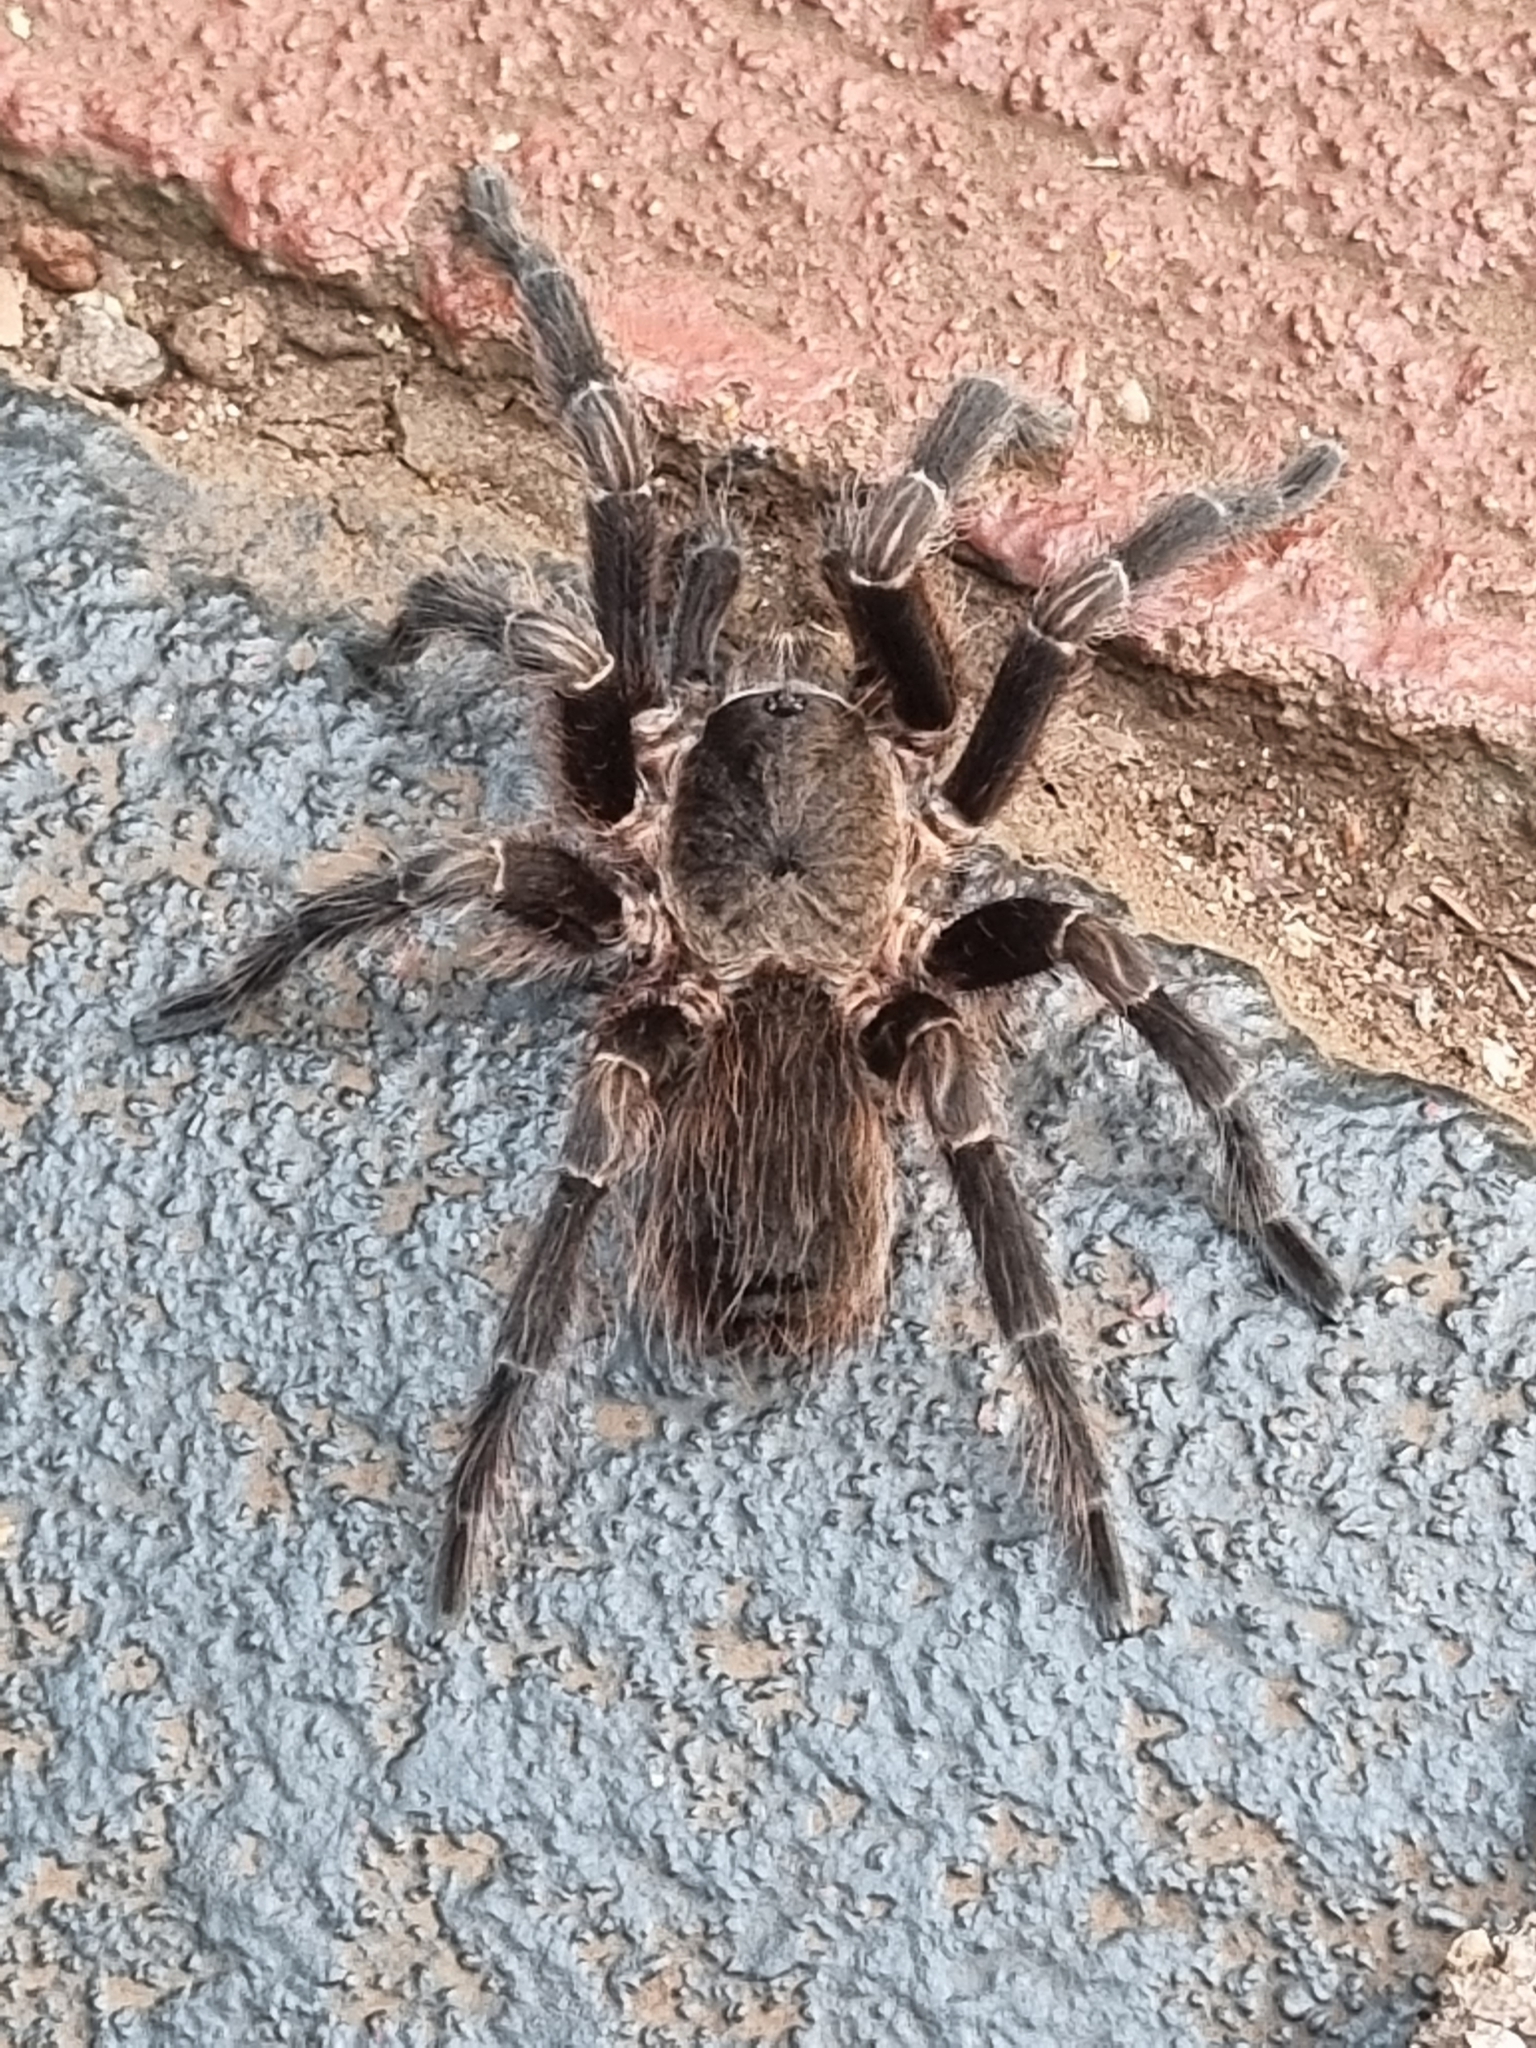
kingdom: Animalia
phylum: Arthropoda
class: Arachnida
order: Araneae
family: Theraphosidae
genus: Pterinopelma
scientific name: Pterinopelma longisternale
